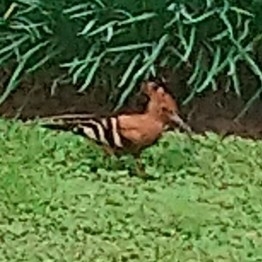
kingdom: Animalia
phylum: Chordata
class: Aves
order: Bucerotiformes
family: Upupidae
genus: Upupa
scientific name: Upupa africana
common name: African hoopoe
